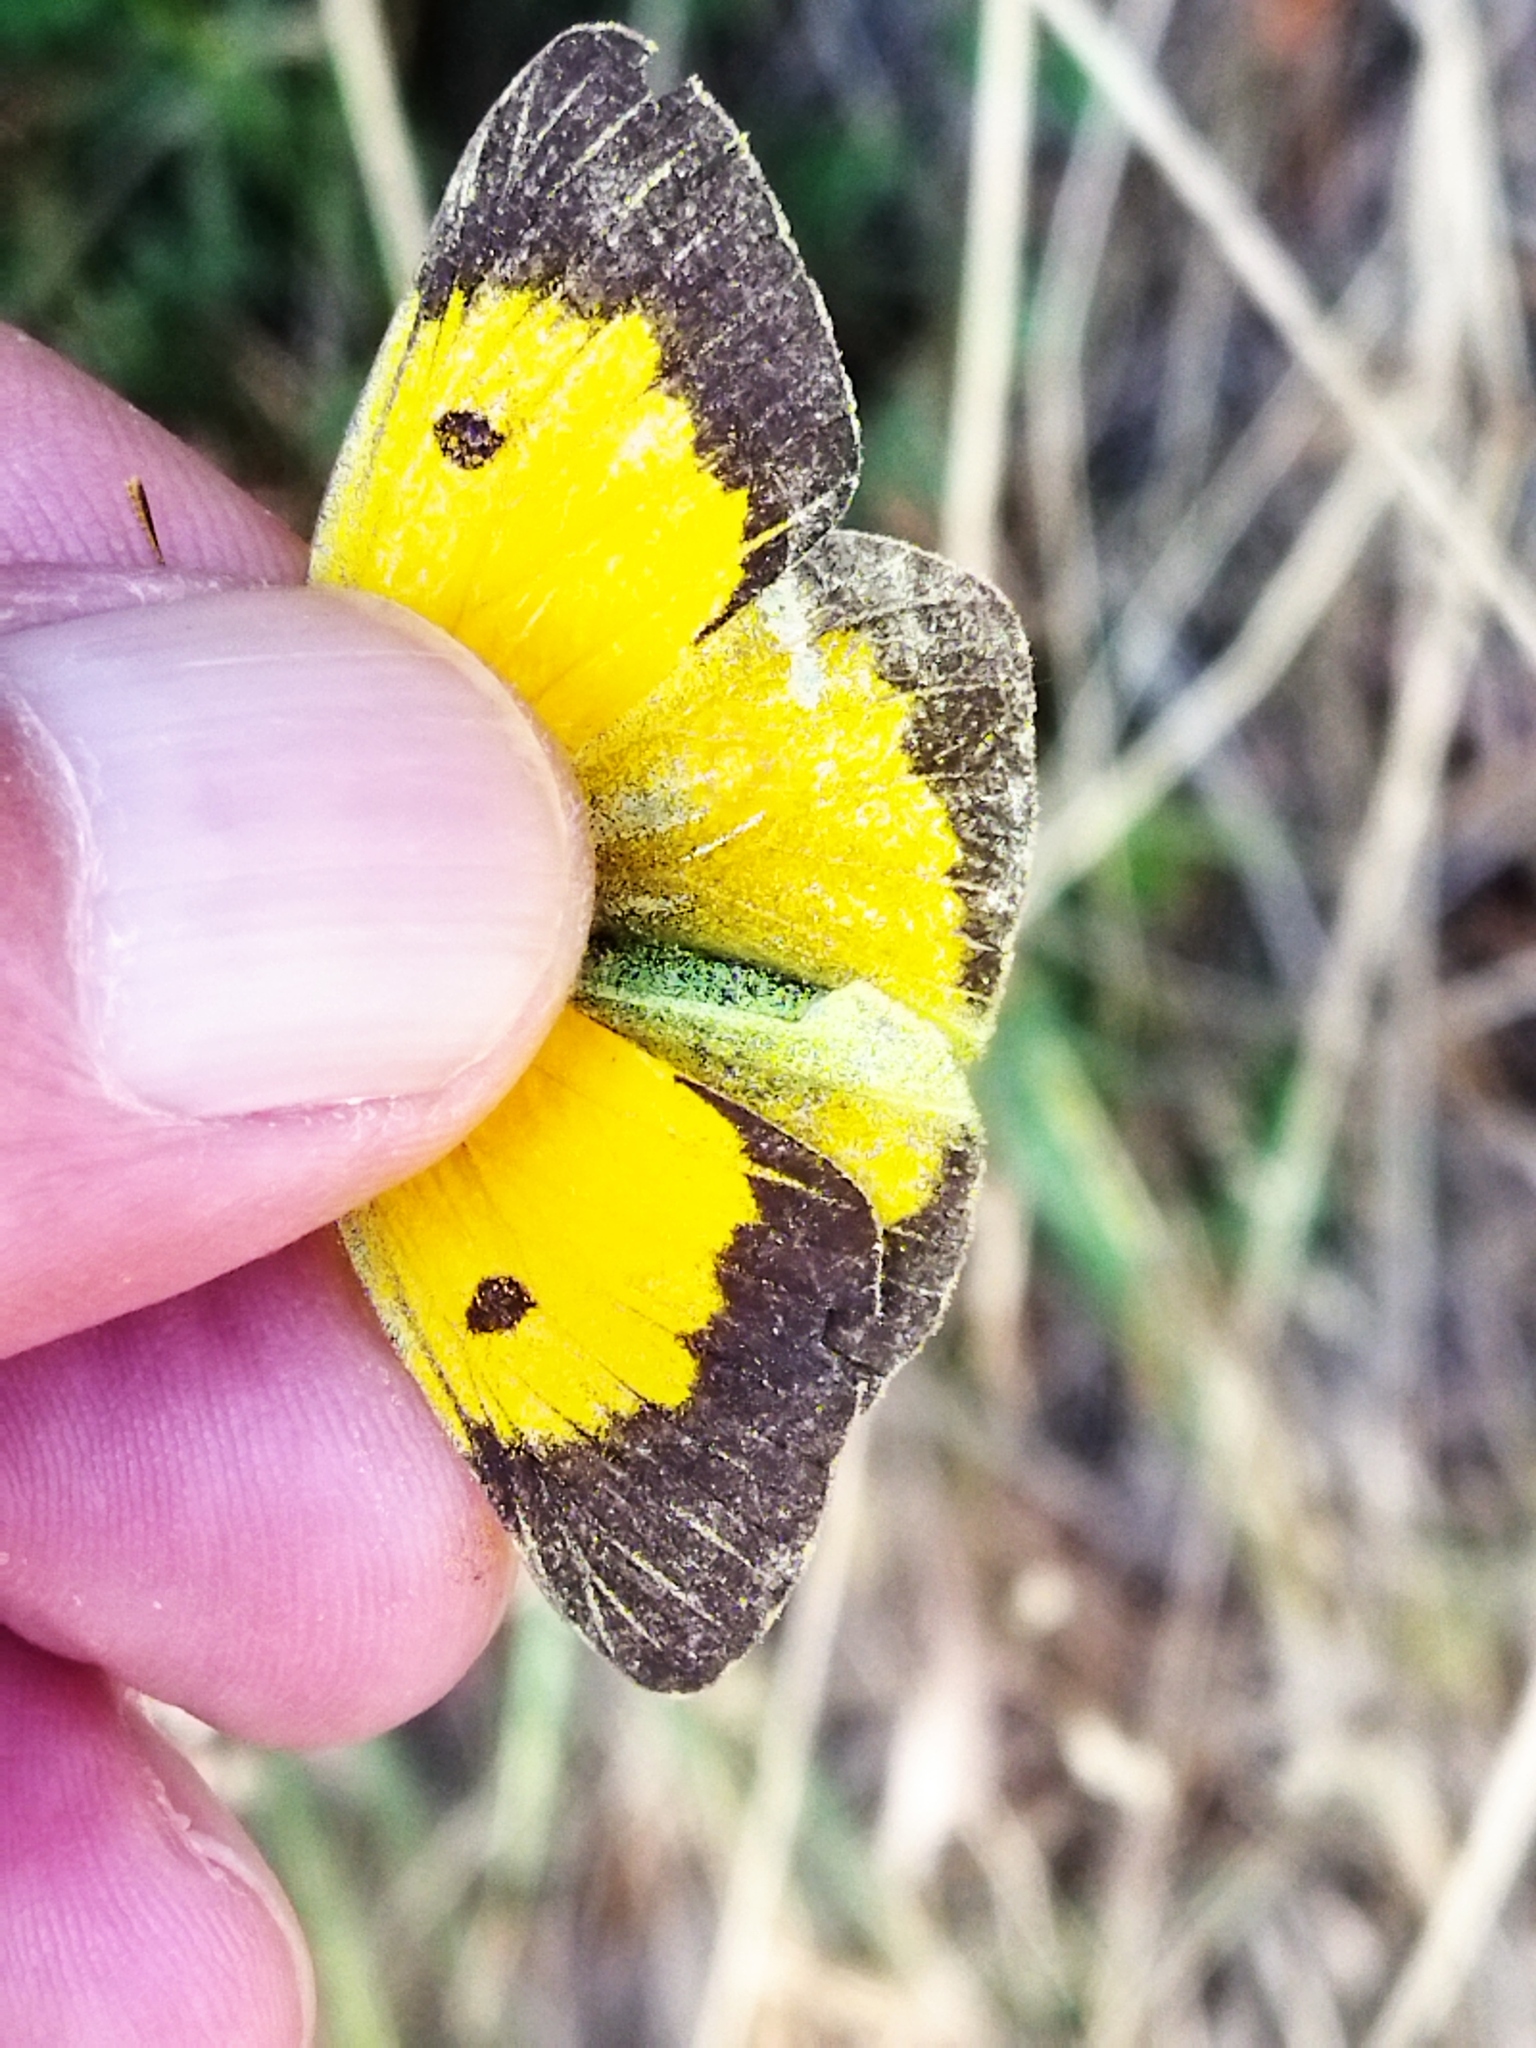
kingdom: Animalia
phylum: Arthropoda
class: Insecta
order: Lepidoptera
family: Pieridae
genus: Colias
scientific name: Colias croceus
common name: Clouded yellow
